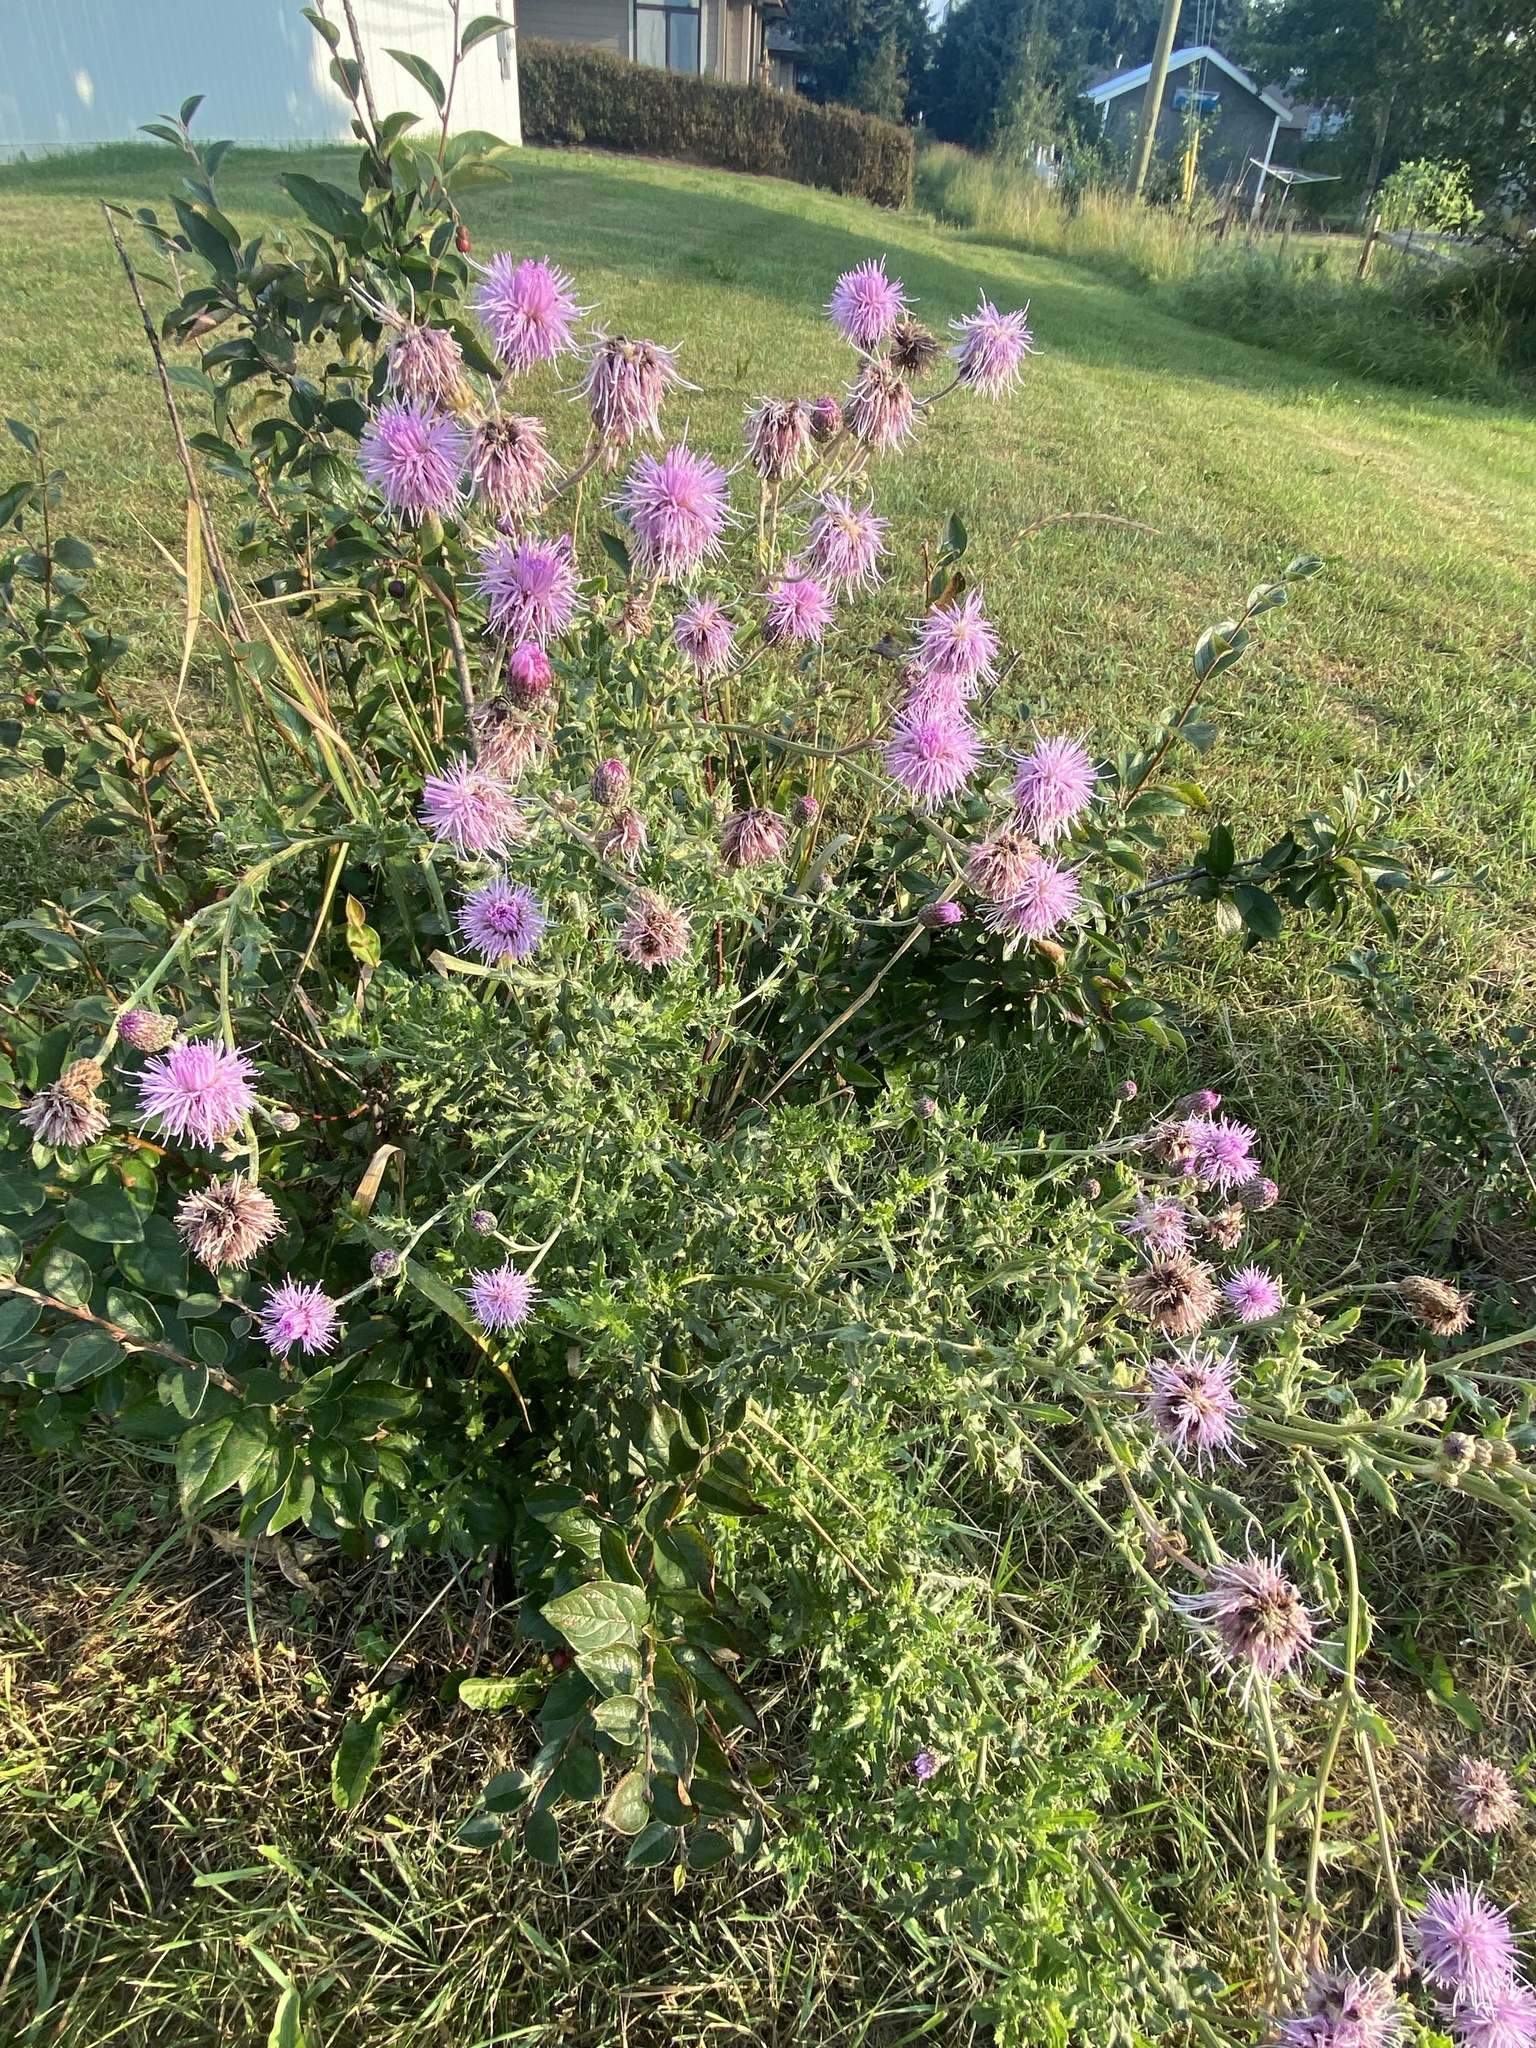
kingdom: Plantae
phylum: Tracheophyta
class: Magnoliopsida
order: Asterales
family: Asteraceae
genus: Cirsium
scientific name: Cirsium arvense
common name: Creeping thistle
